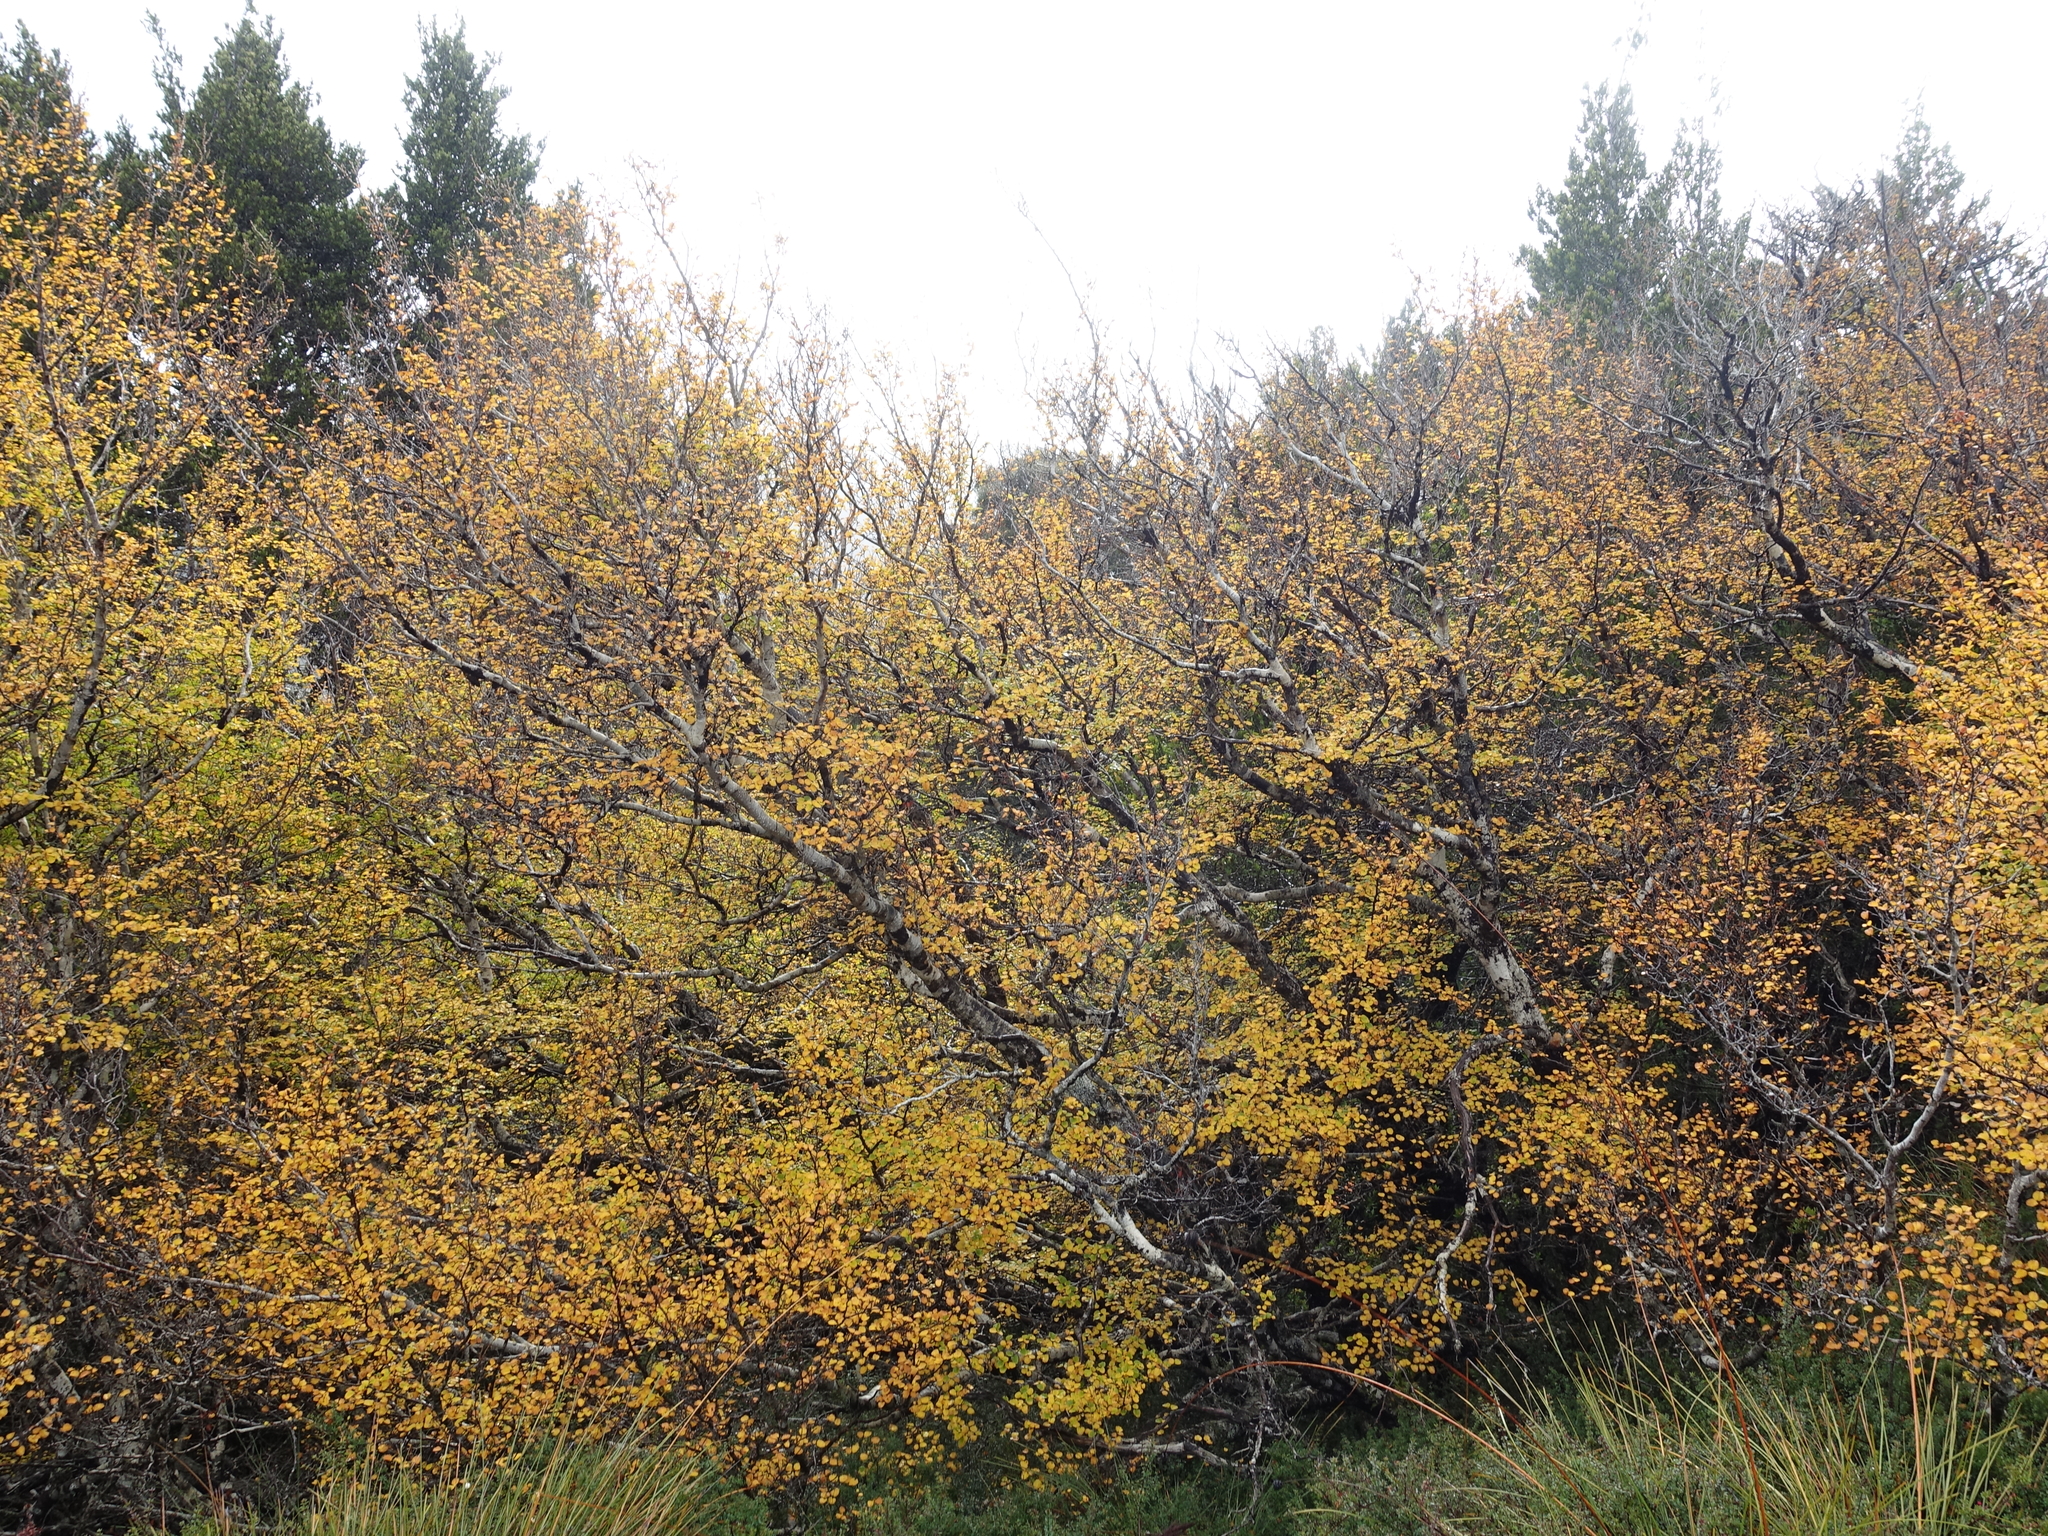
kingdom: Plantae
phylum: Tracheophyta
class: Magnoliopsida
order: Fagales
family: Nothofagaceae
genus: Nothofagus
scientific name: Nothofagus gunnii
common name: Tanglefoot
